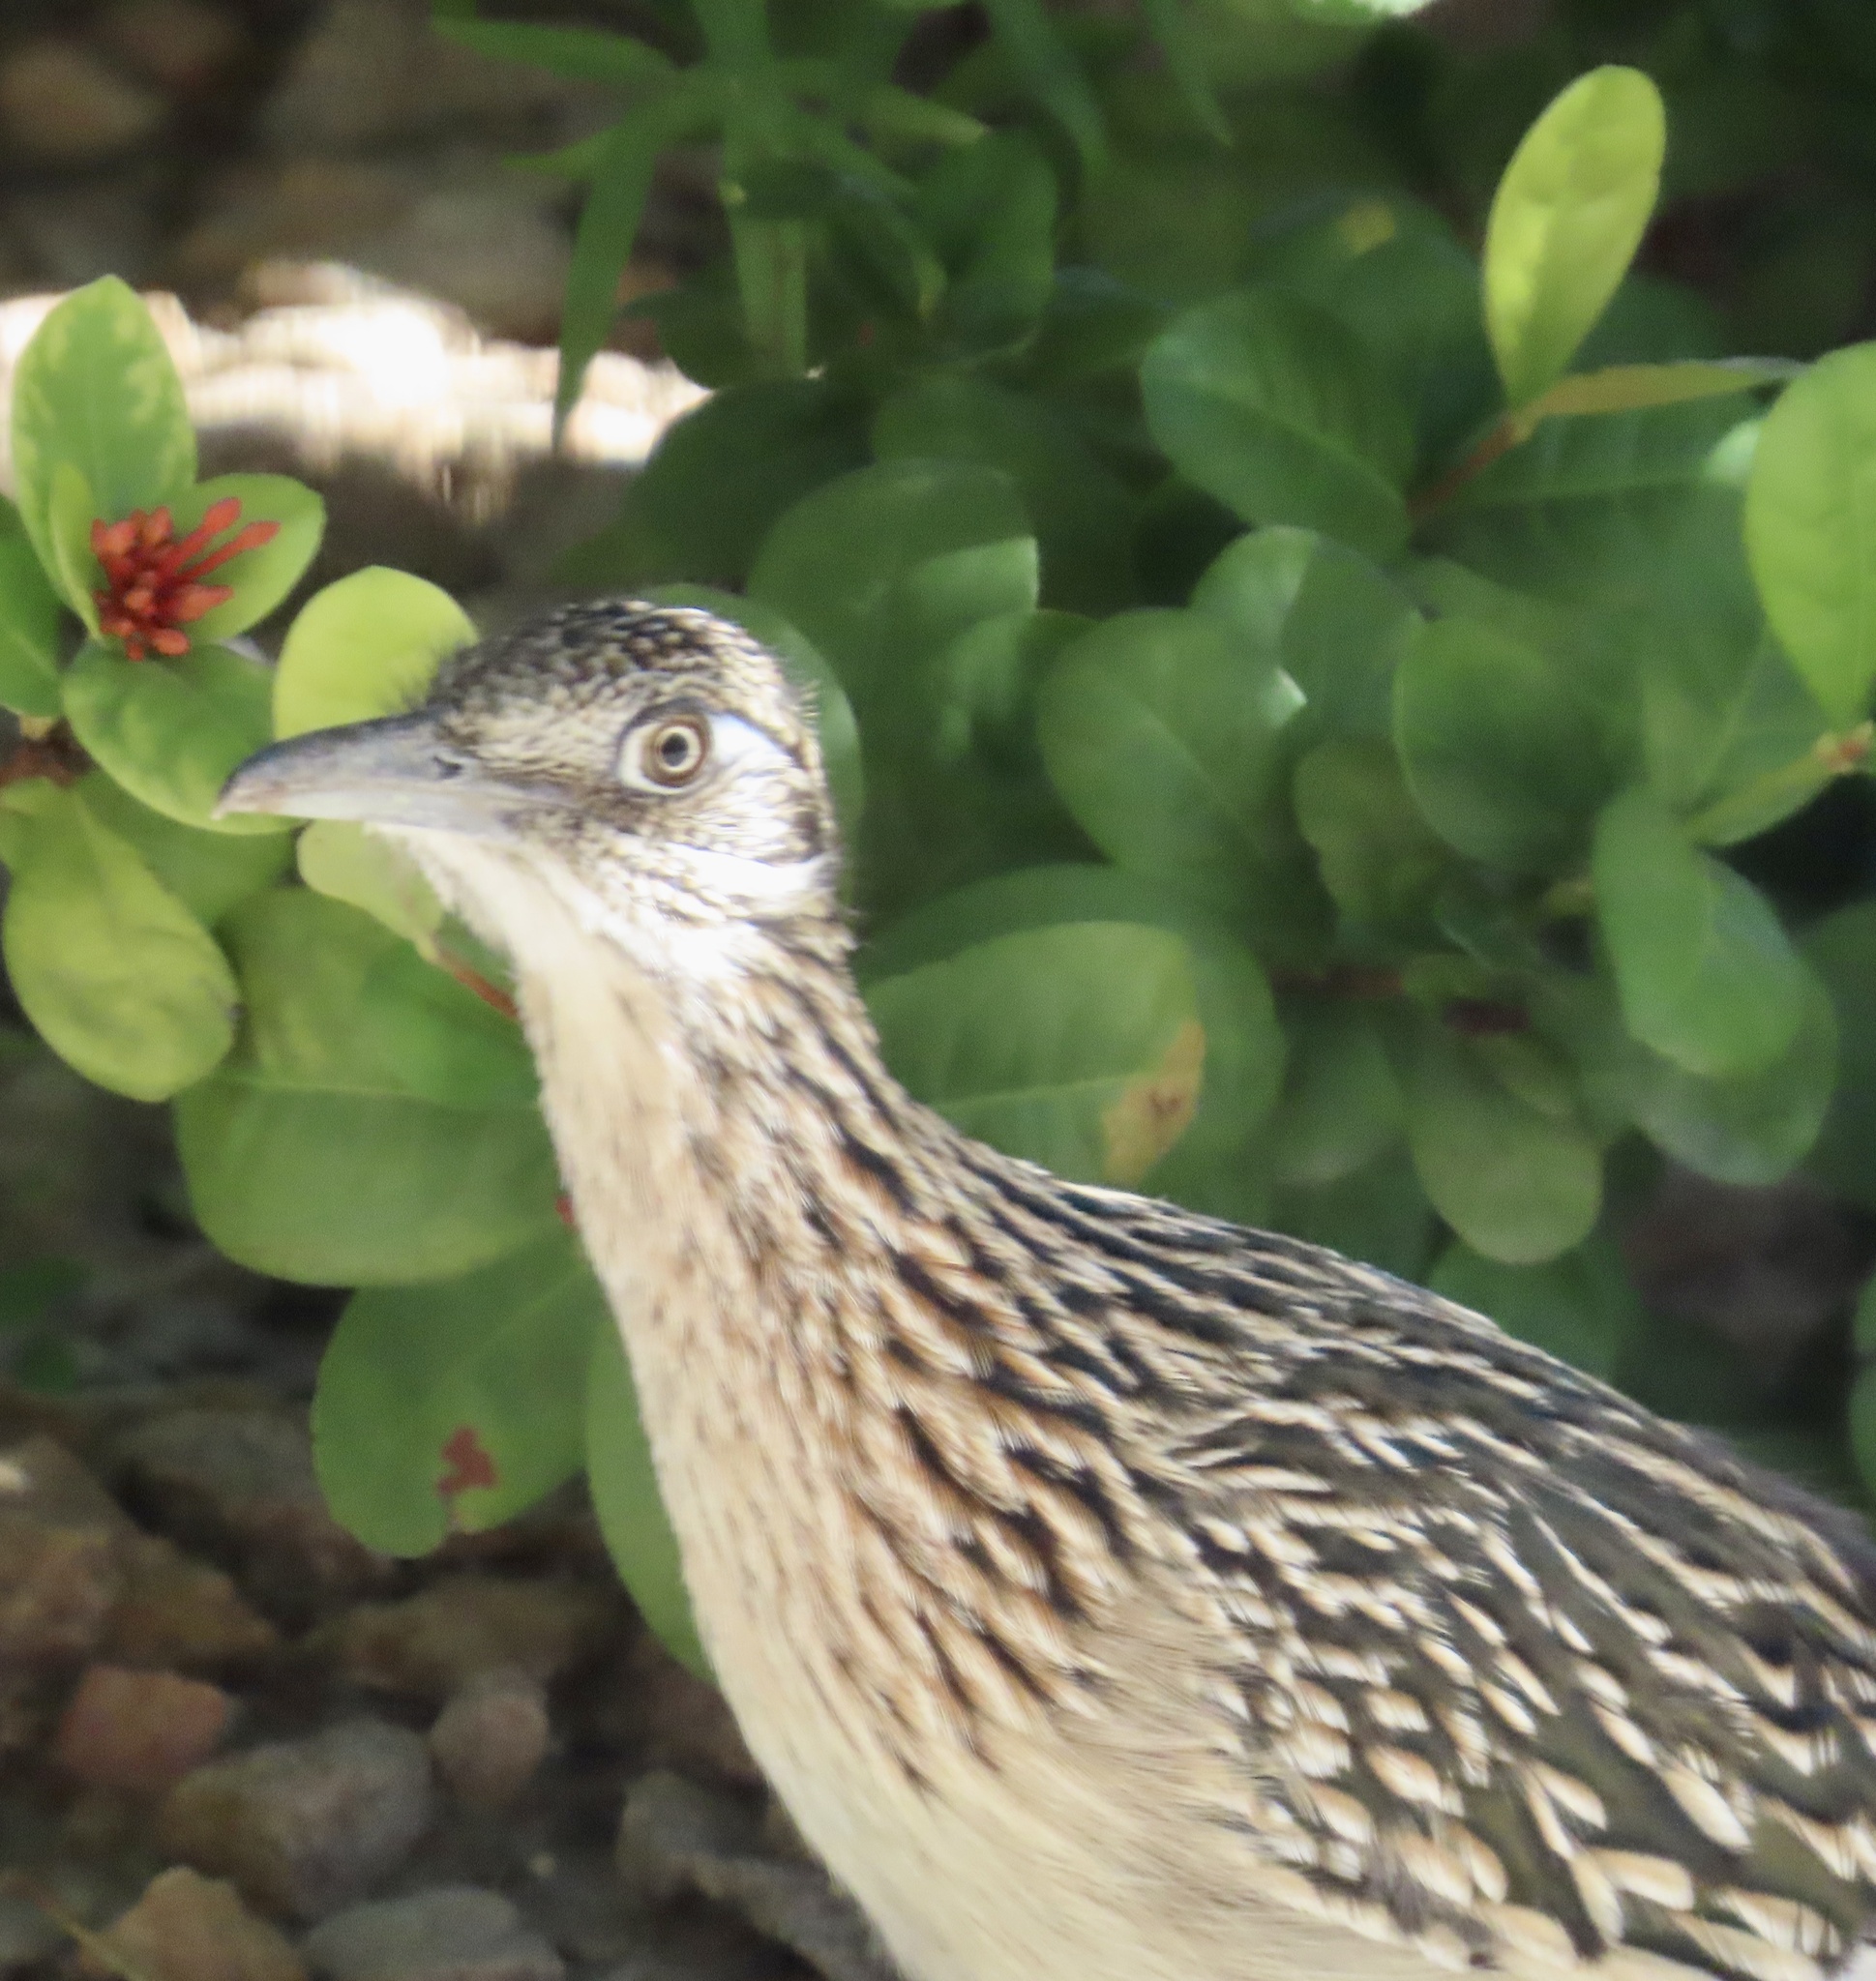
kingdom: Animalia
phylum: Chordata
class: Aves
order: Cuculiformes
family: Cuculidae
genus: Geococcyx
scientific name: Geococcyx californianus
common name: Greater roadrunner
